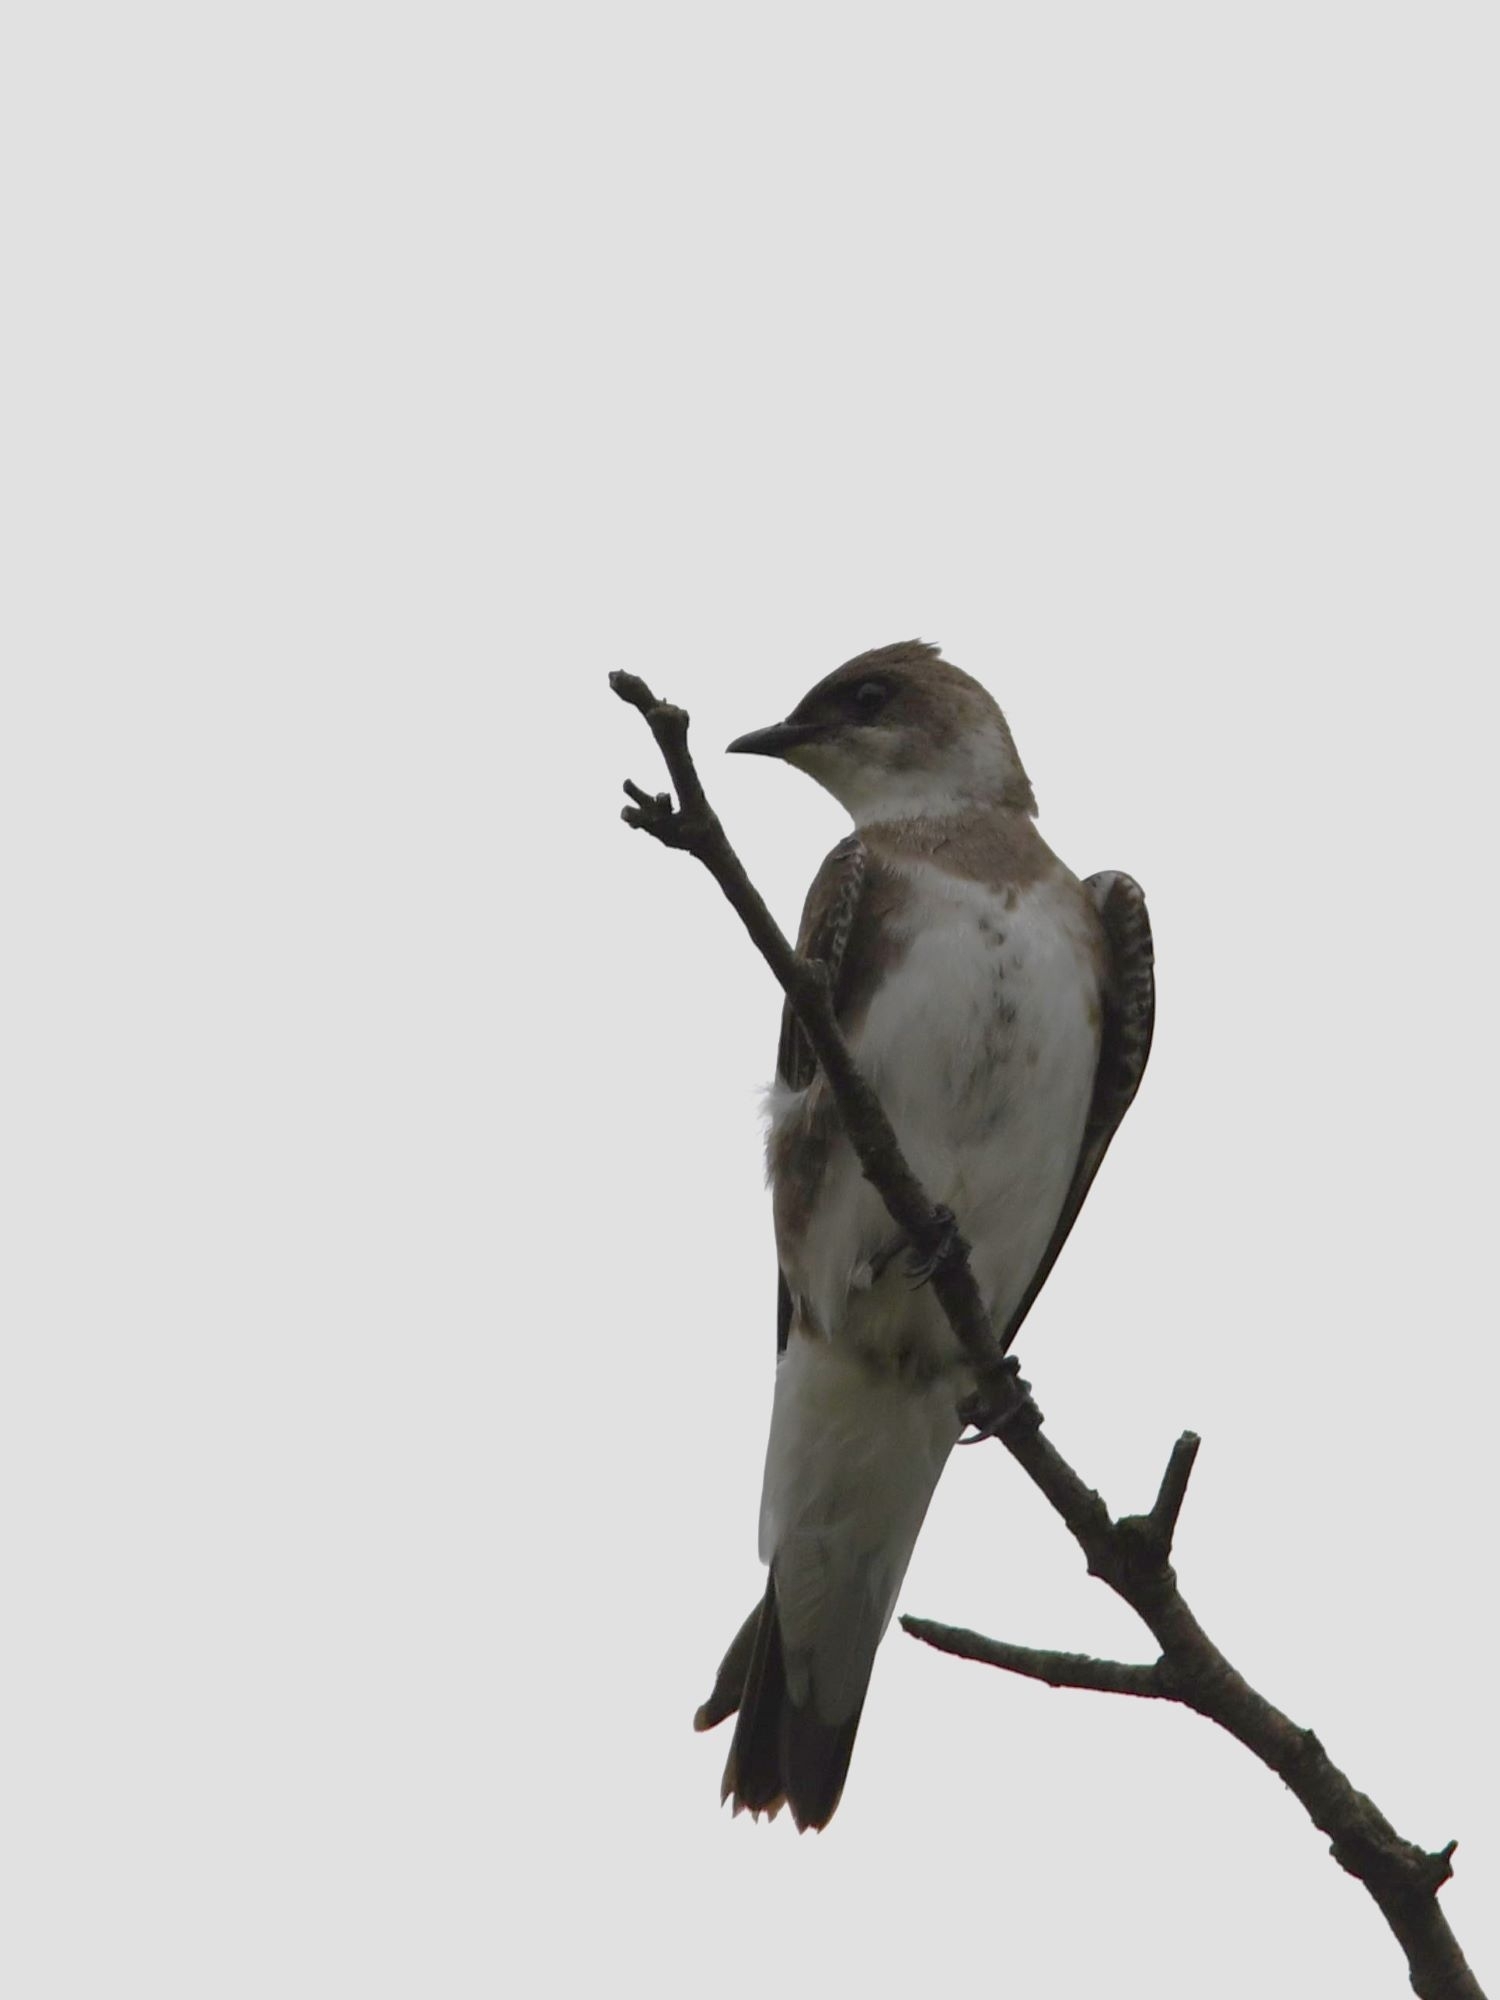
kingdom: Animalia
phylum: Chordata
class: Aves
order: Passeriformes
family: Hirundinidae
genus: Progne
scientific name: Progne tapera
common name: Brown-chested martin
